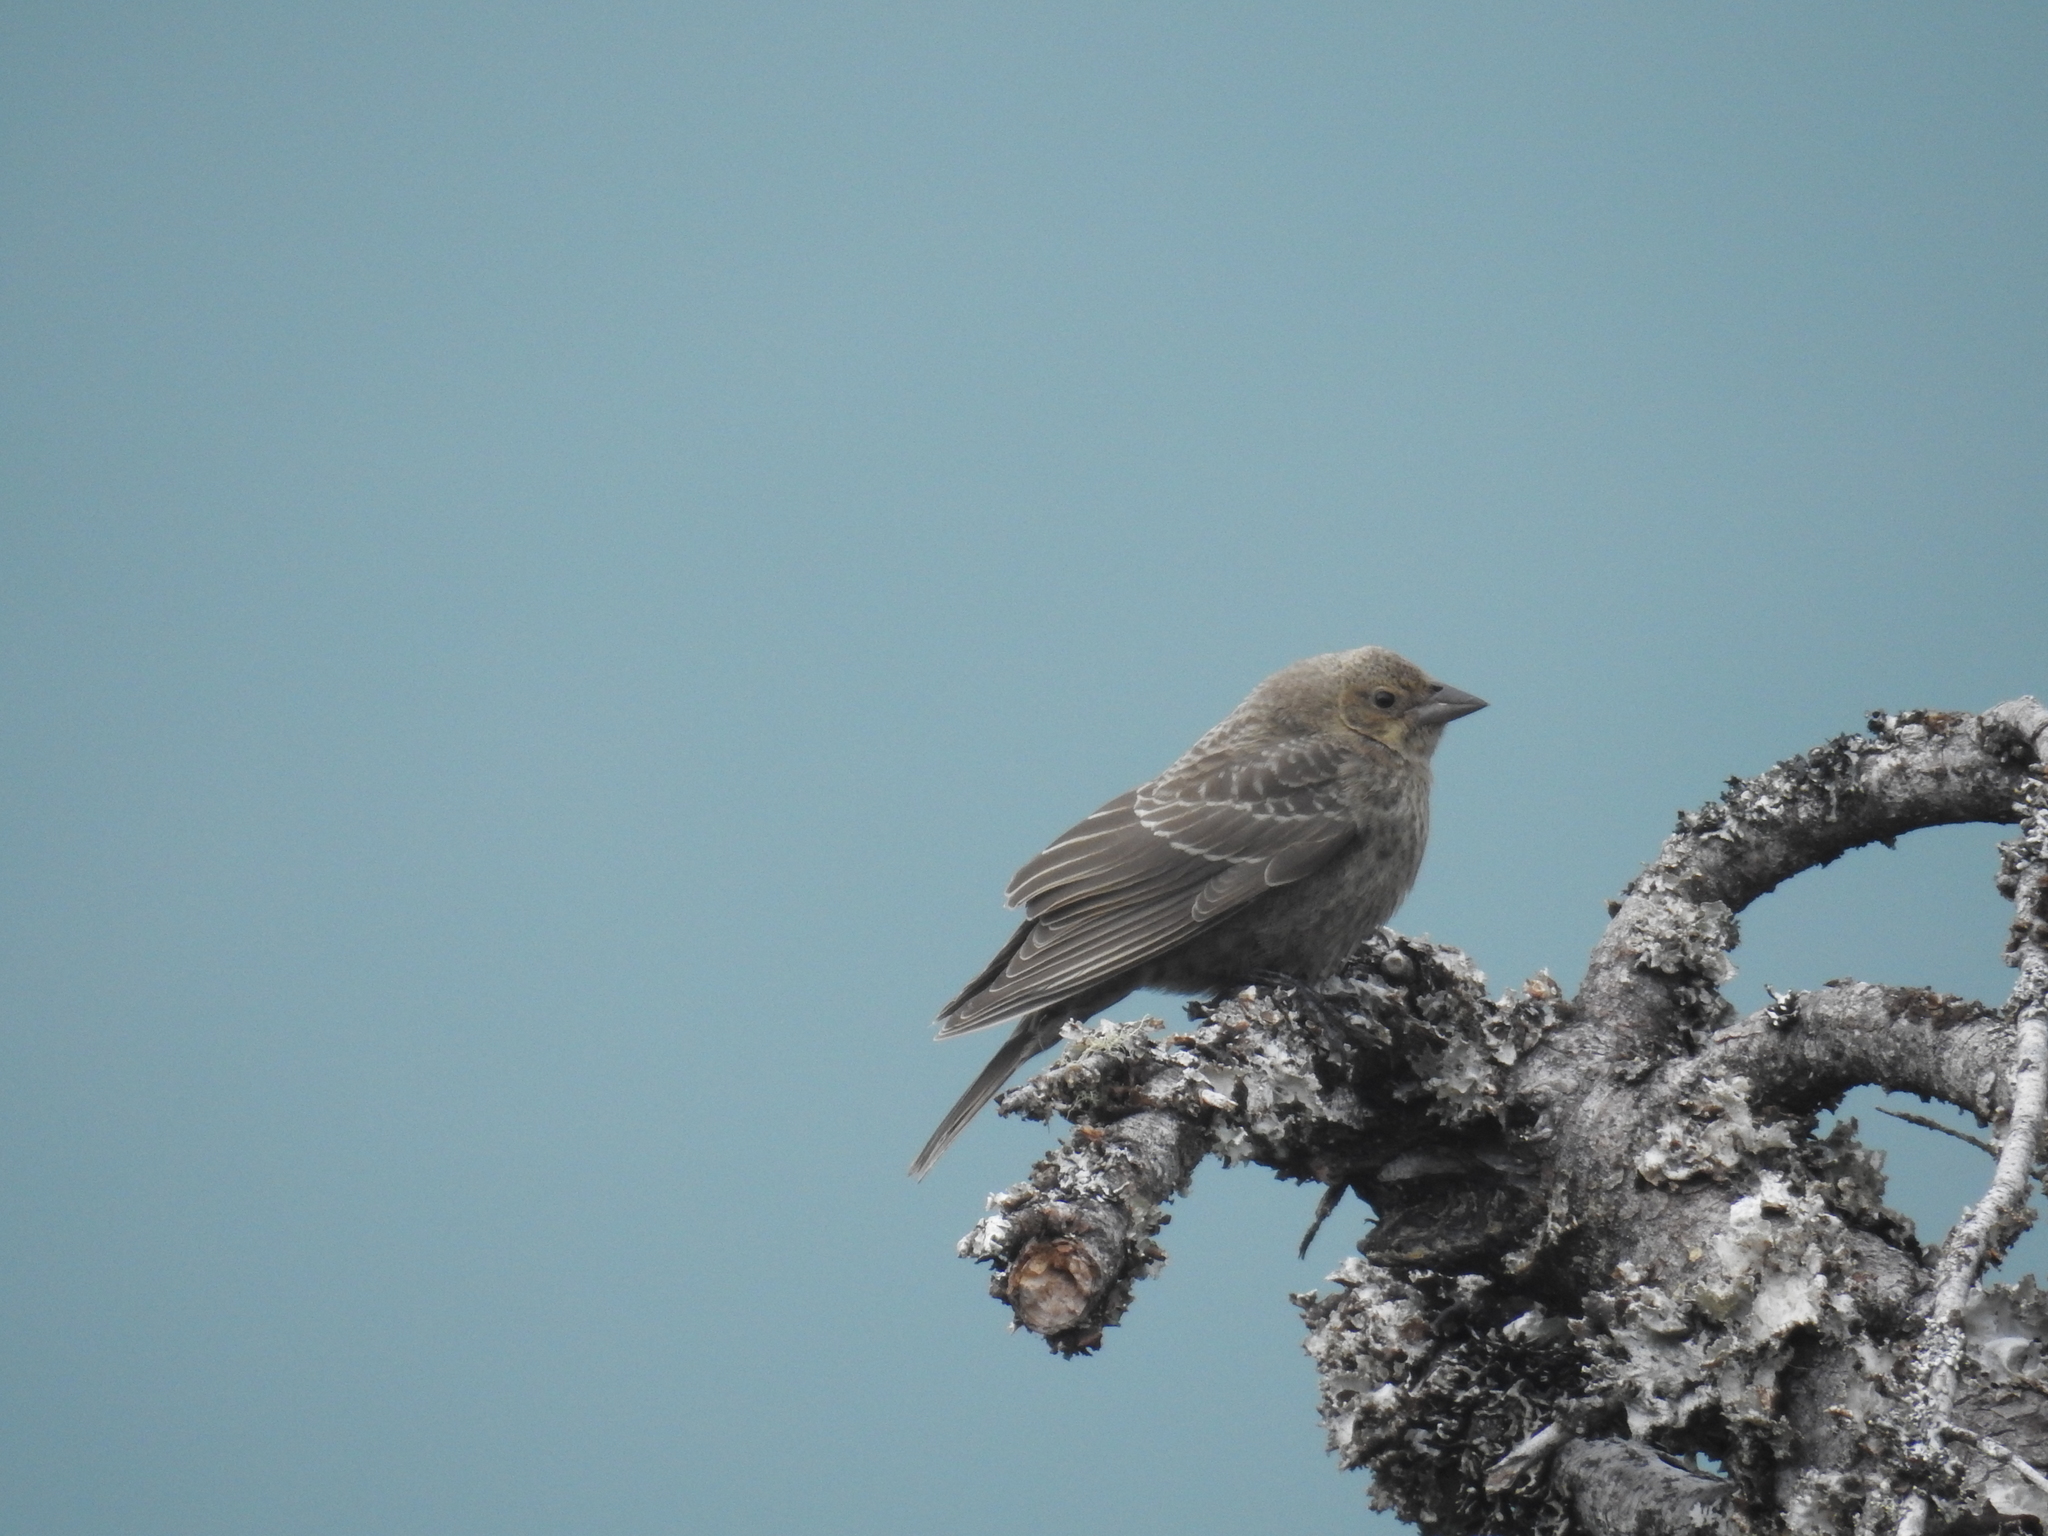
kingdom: Animalia
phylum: Chordata
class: Aves
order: Passeriformes
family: Icteridae
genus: Molothrus
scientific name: Molothrus ater
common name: Brown-headed cowbird
